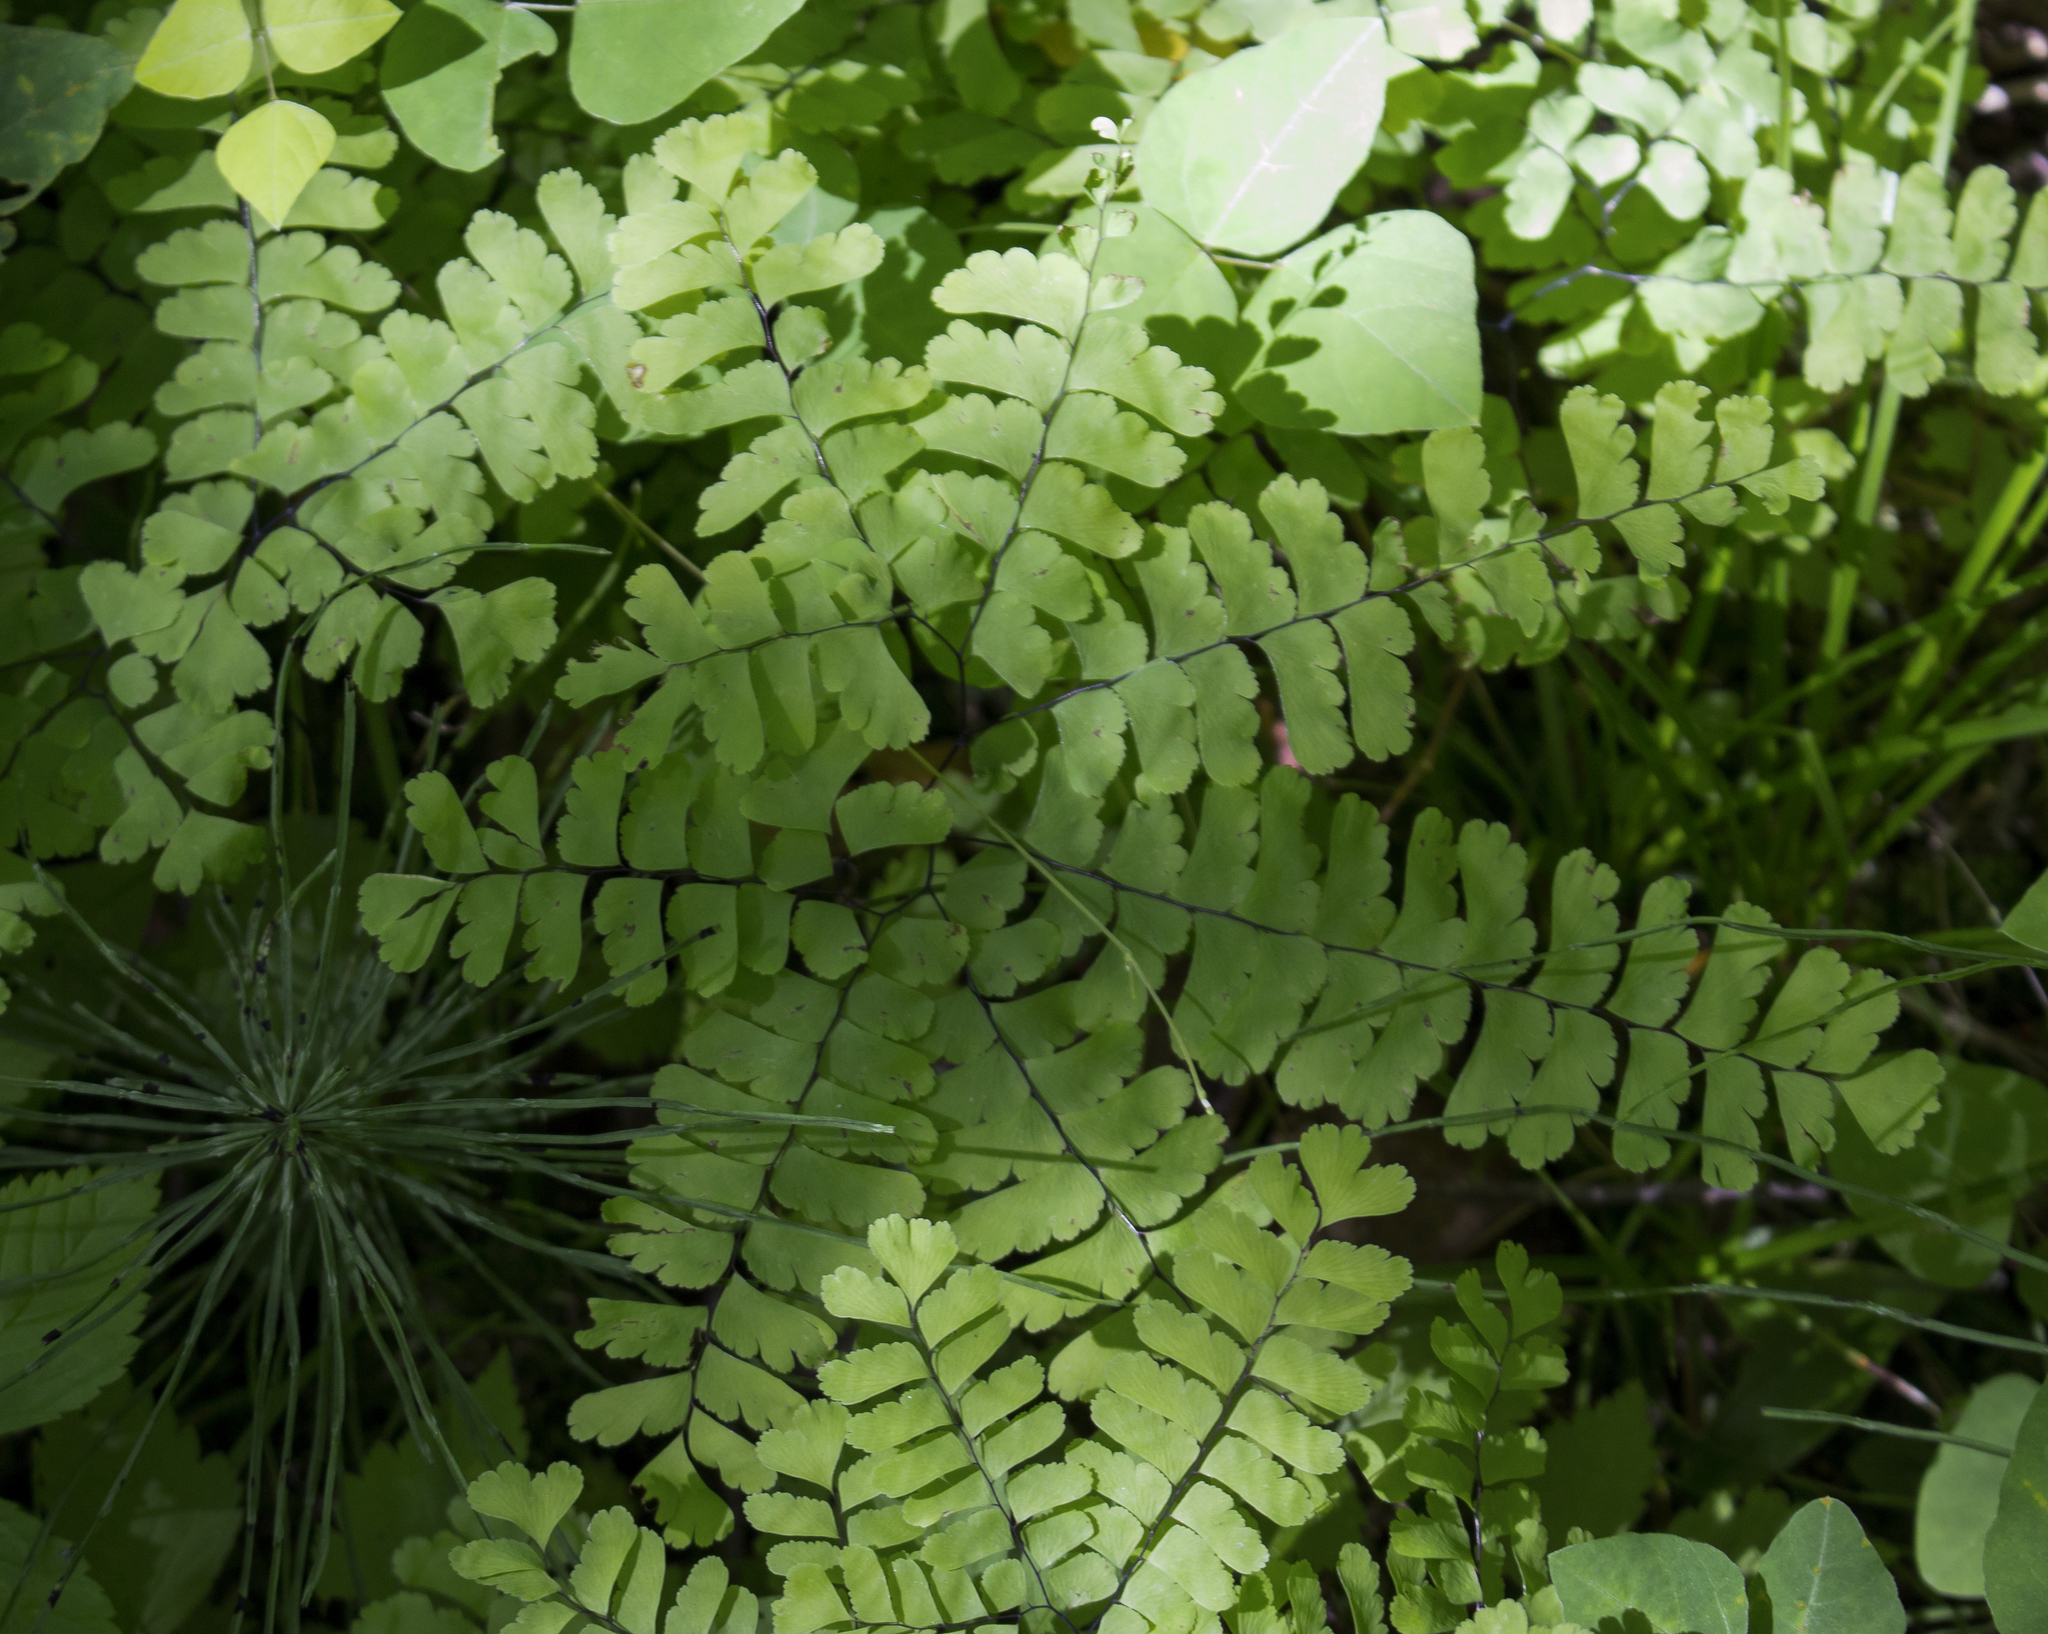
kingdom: Plantae
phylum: Tracheophyta
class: Polypodiopsida
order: Polypodiales
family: Pteridaceae
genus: Adiantum
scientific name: Adiantum pedatum
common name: Five-finger fern
